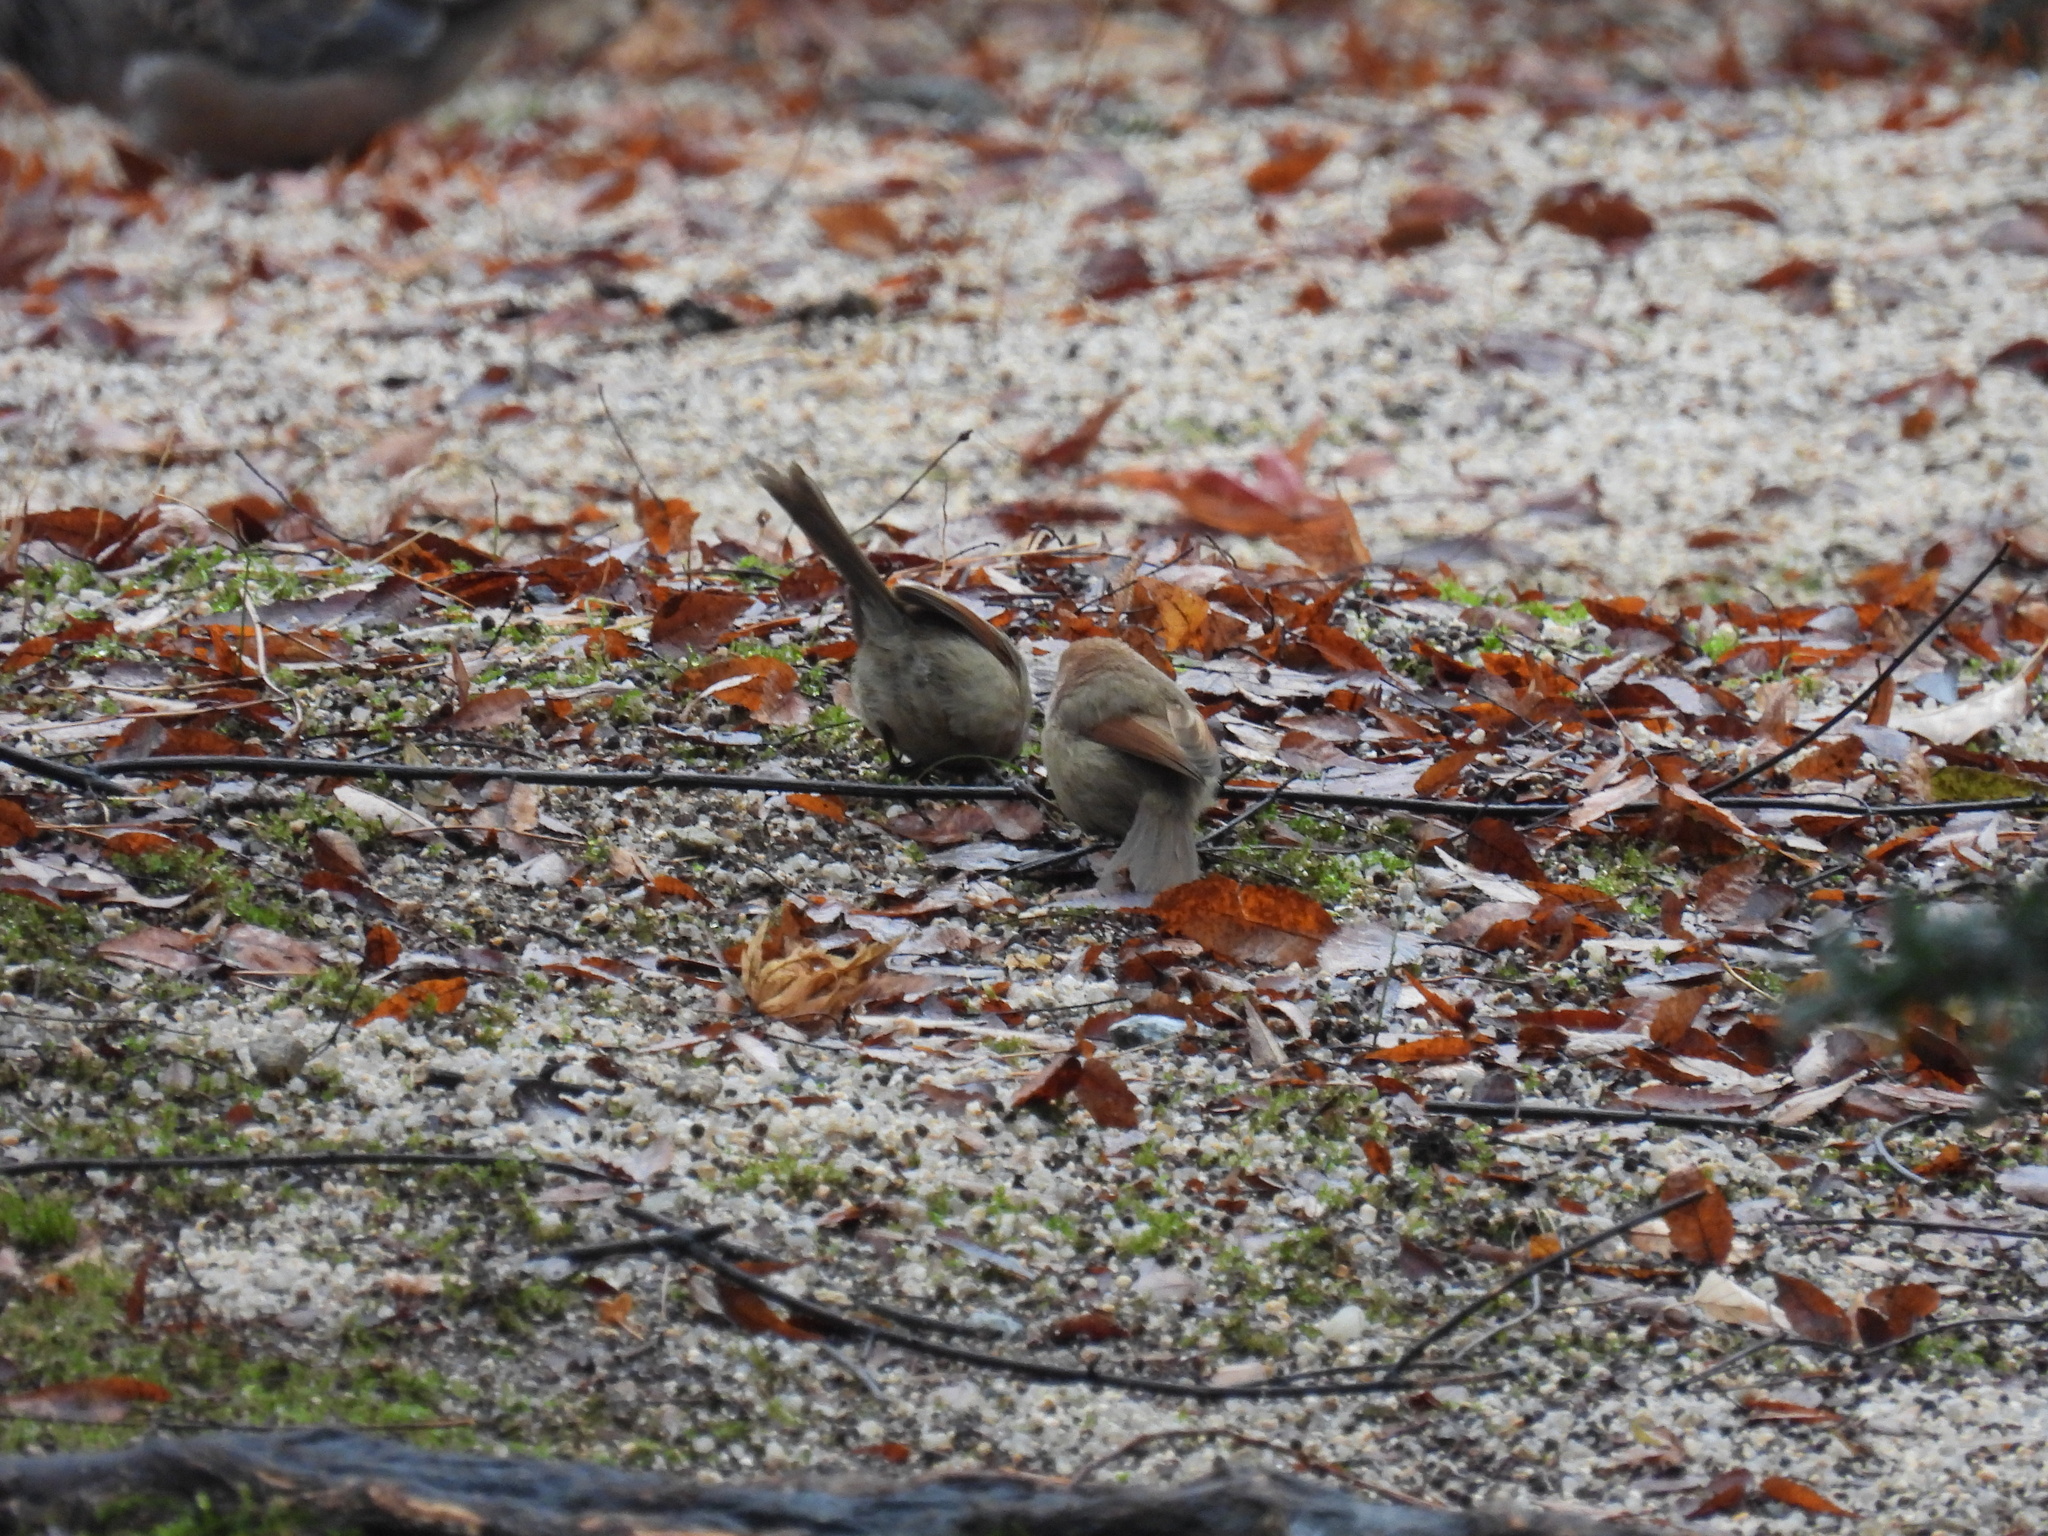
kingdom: Animalia
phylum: Chordata
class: Aves
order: Passeriformes
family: Sylviidae
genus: Sinosuthora
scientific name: Sinosuthora webbiana
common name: Vinous-throated parrotbill
